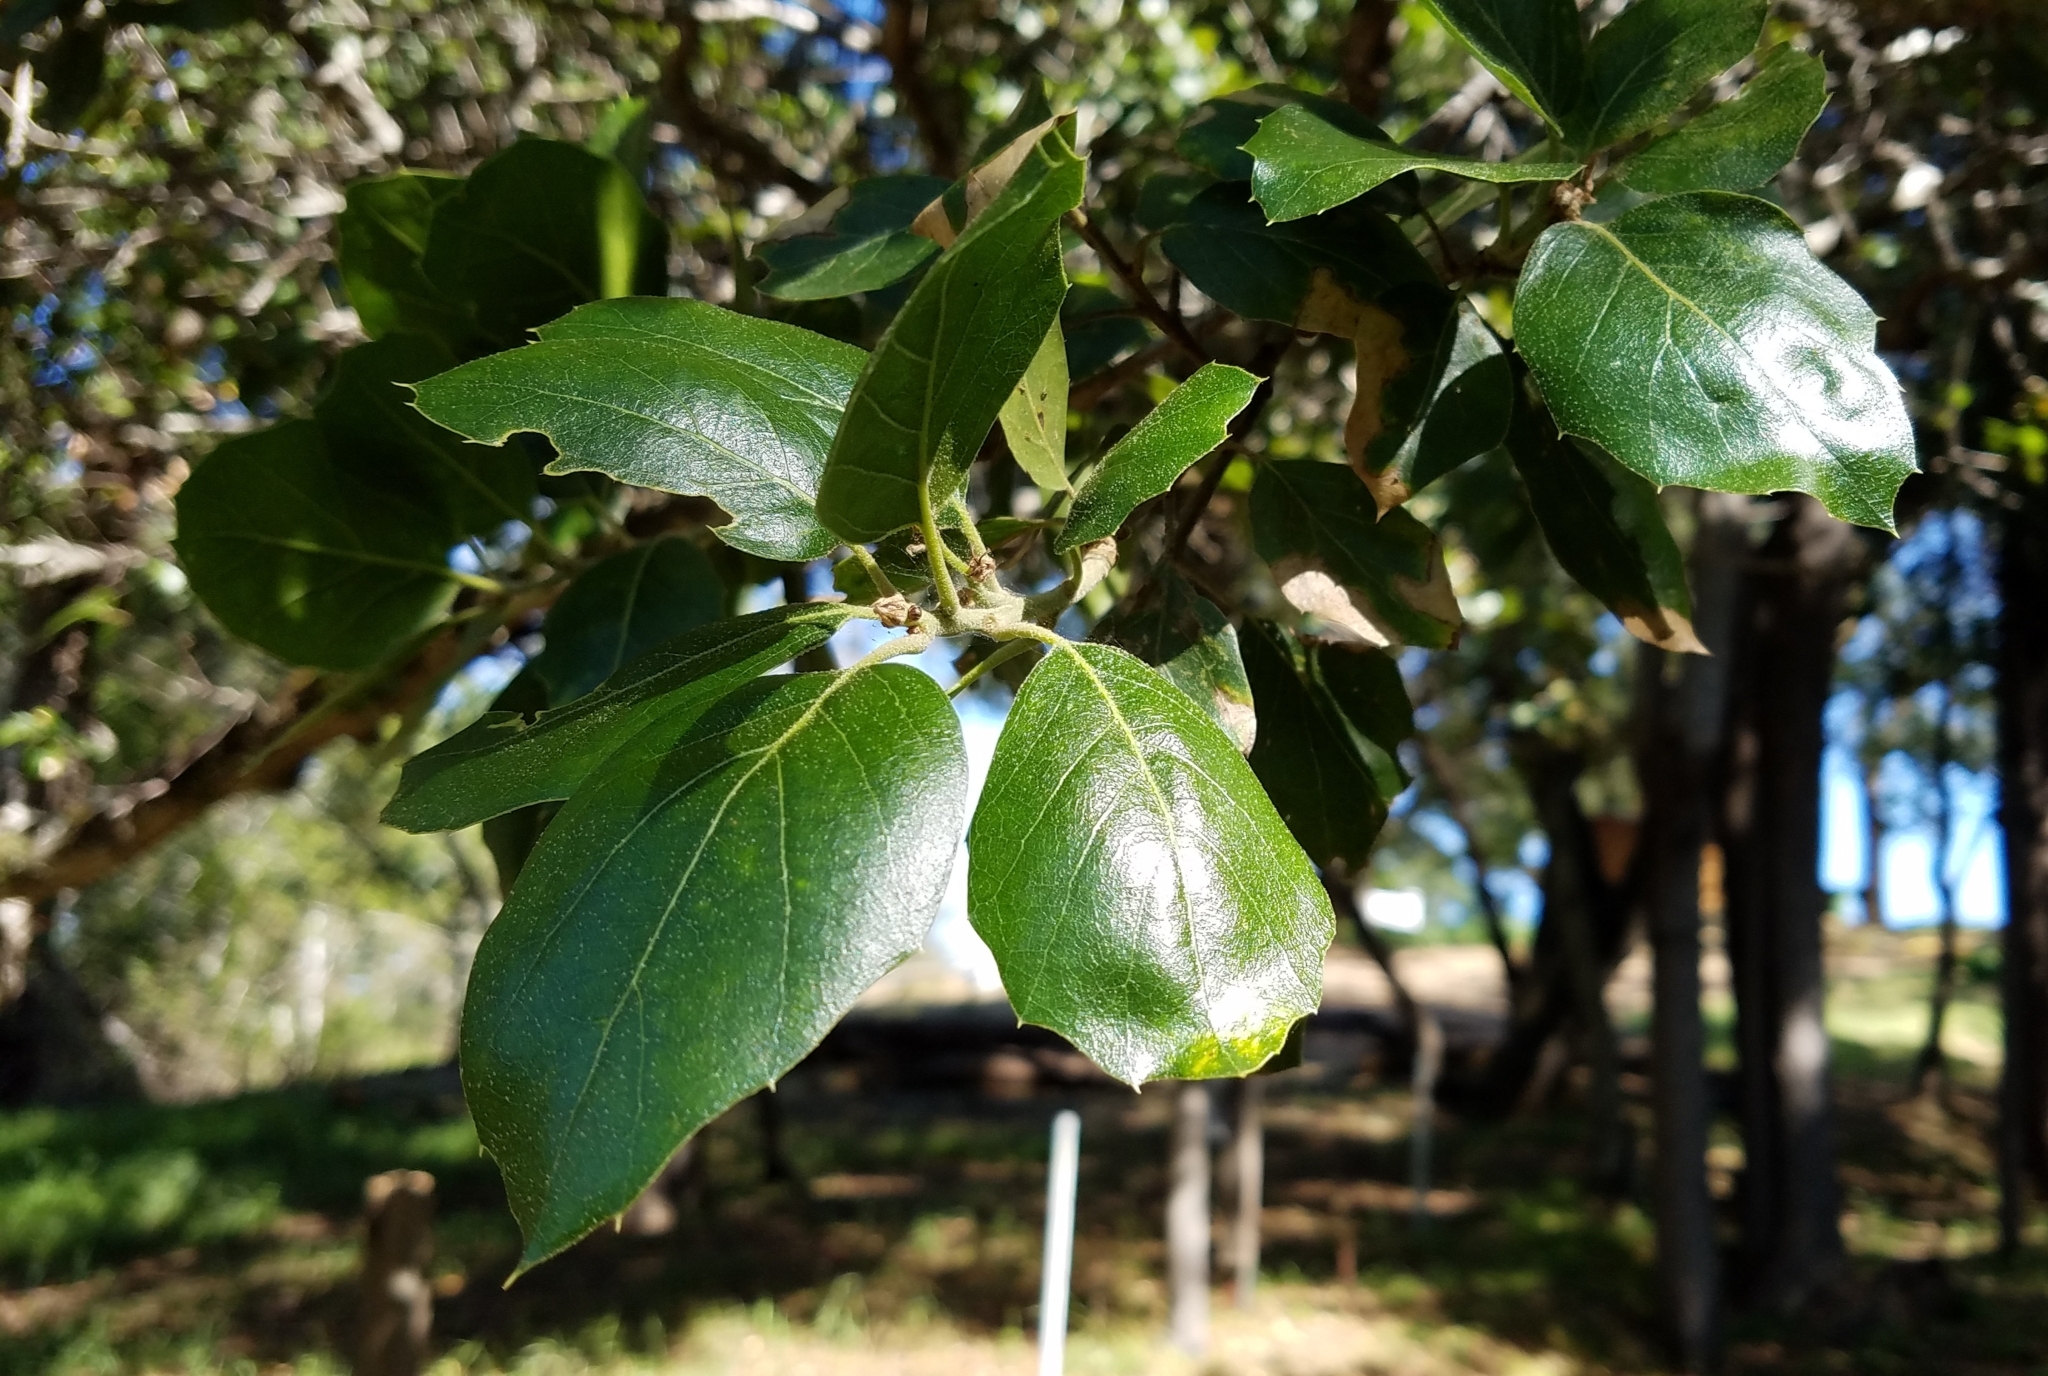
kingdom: Plantae
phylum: Tracheophyta
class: Magnoliopsida
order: Fagales
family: Fagaceae
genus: Quercus
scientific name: Quercus agrifolia
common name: California live oak
